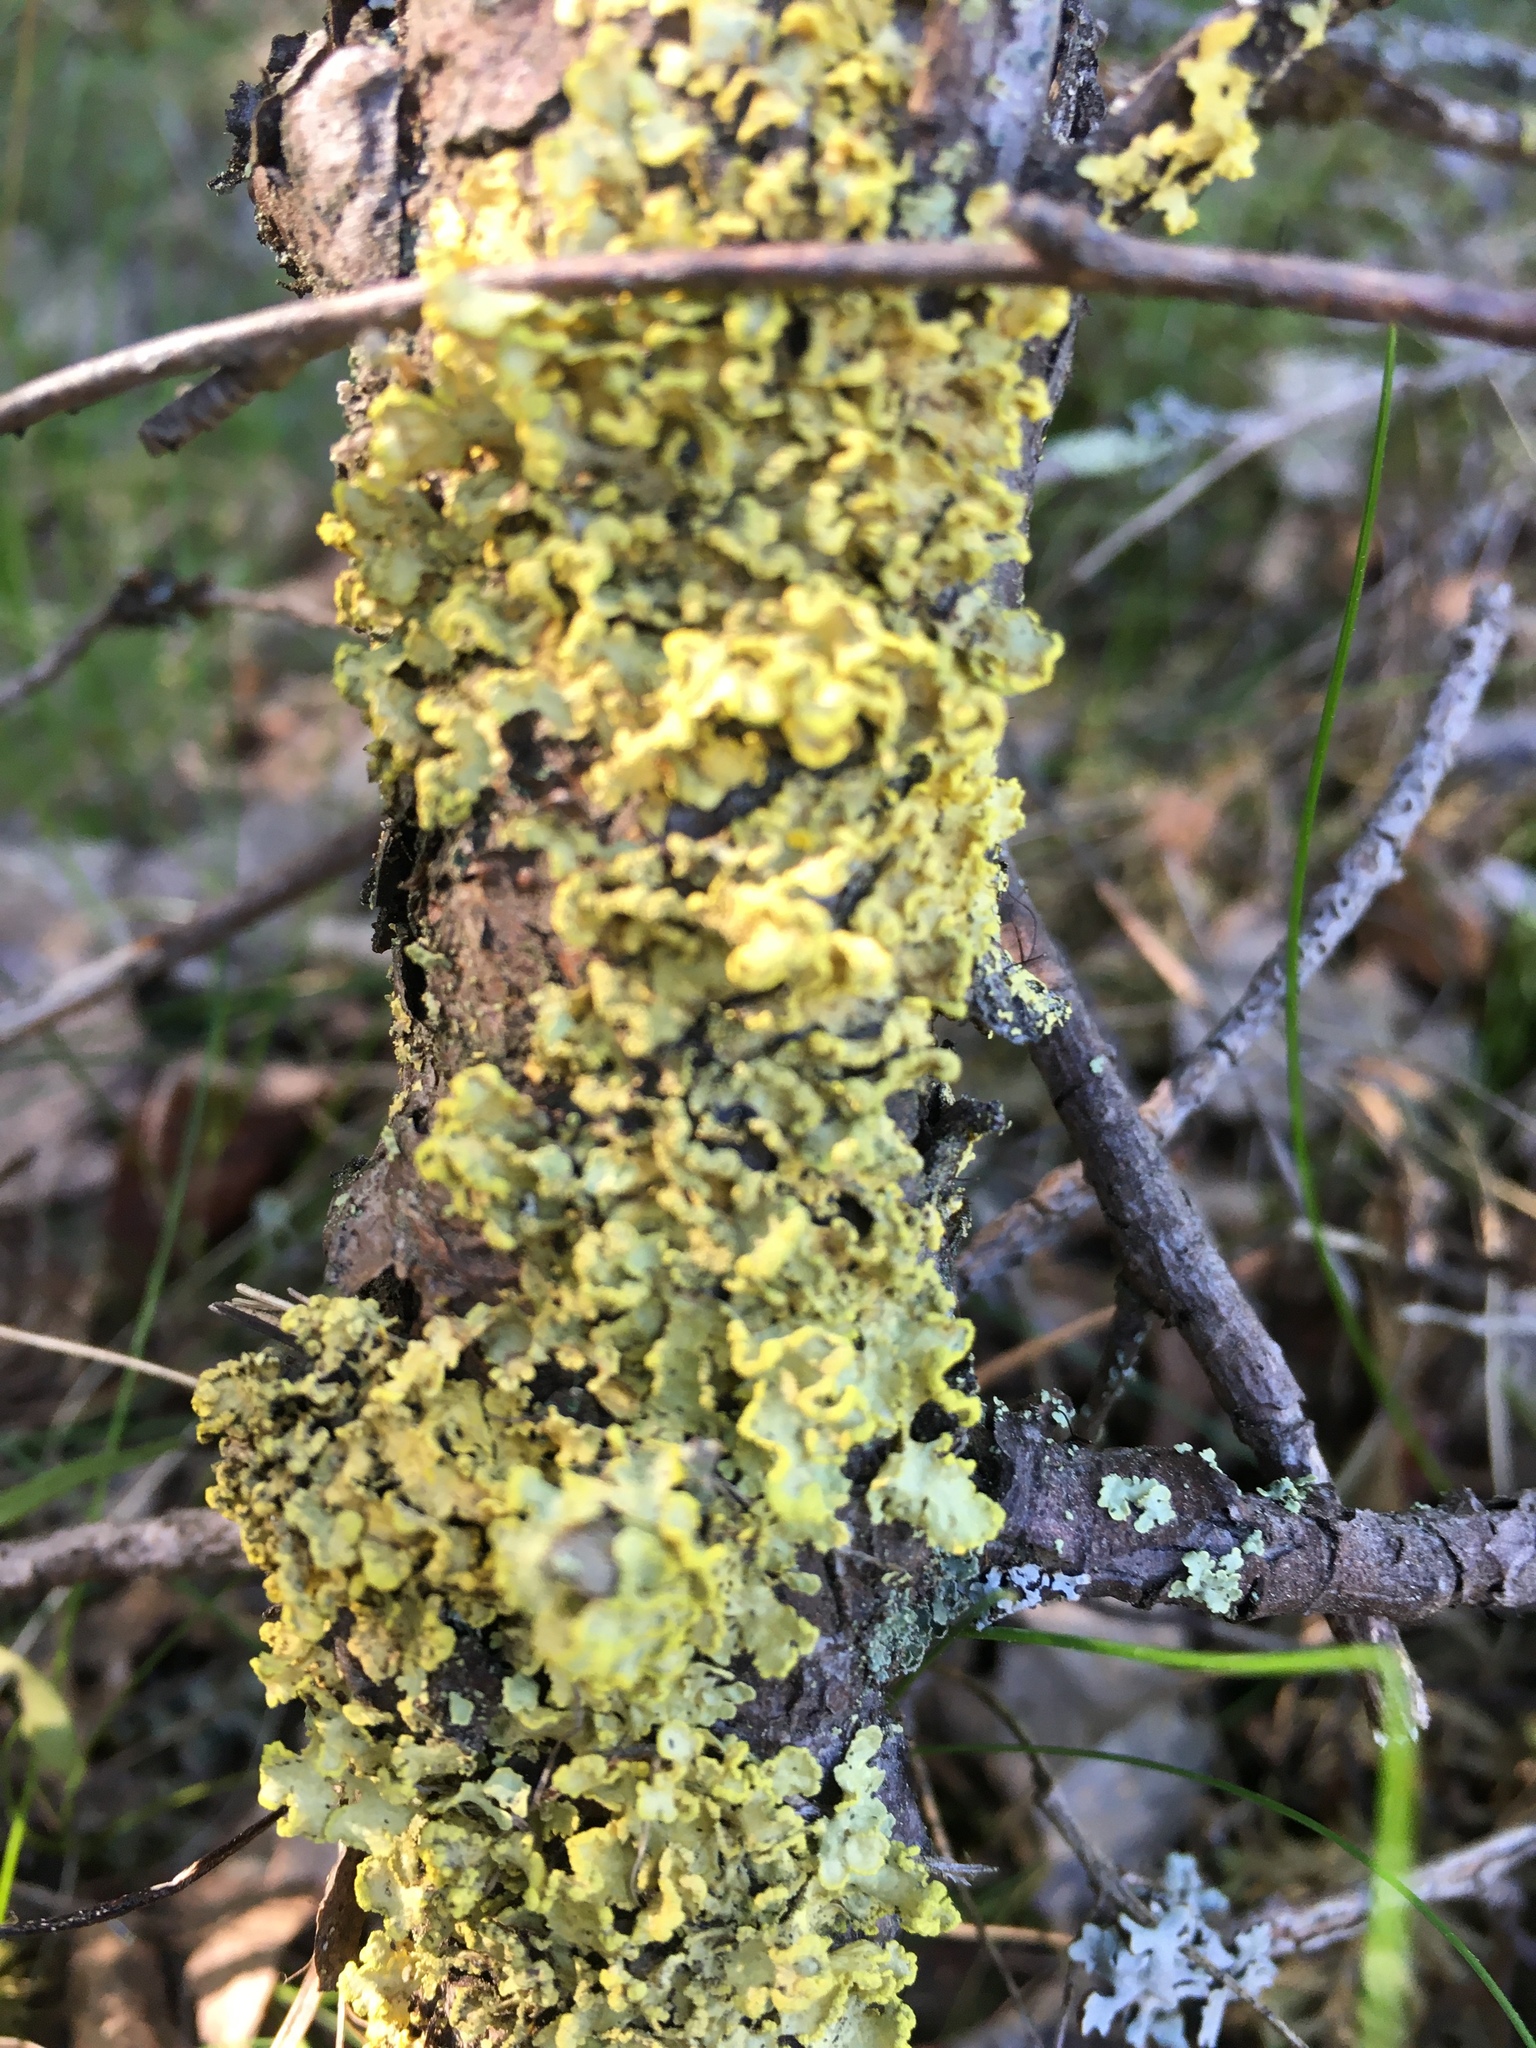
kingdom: Fungi
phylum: Ascomycota
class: Lecanoromycetes
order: Lecanorales
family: Parmeliaceae
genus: Vulpicida
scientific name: Vulpicida pinastri
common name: Powdered sunshine lichen
